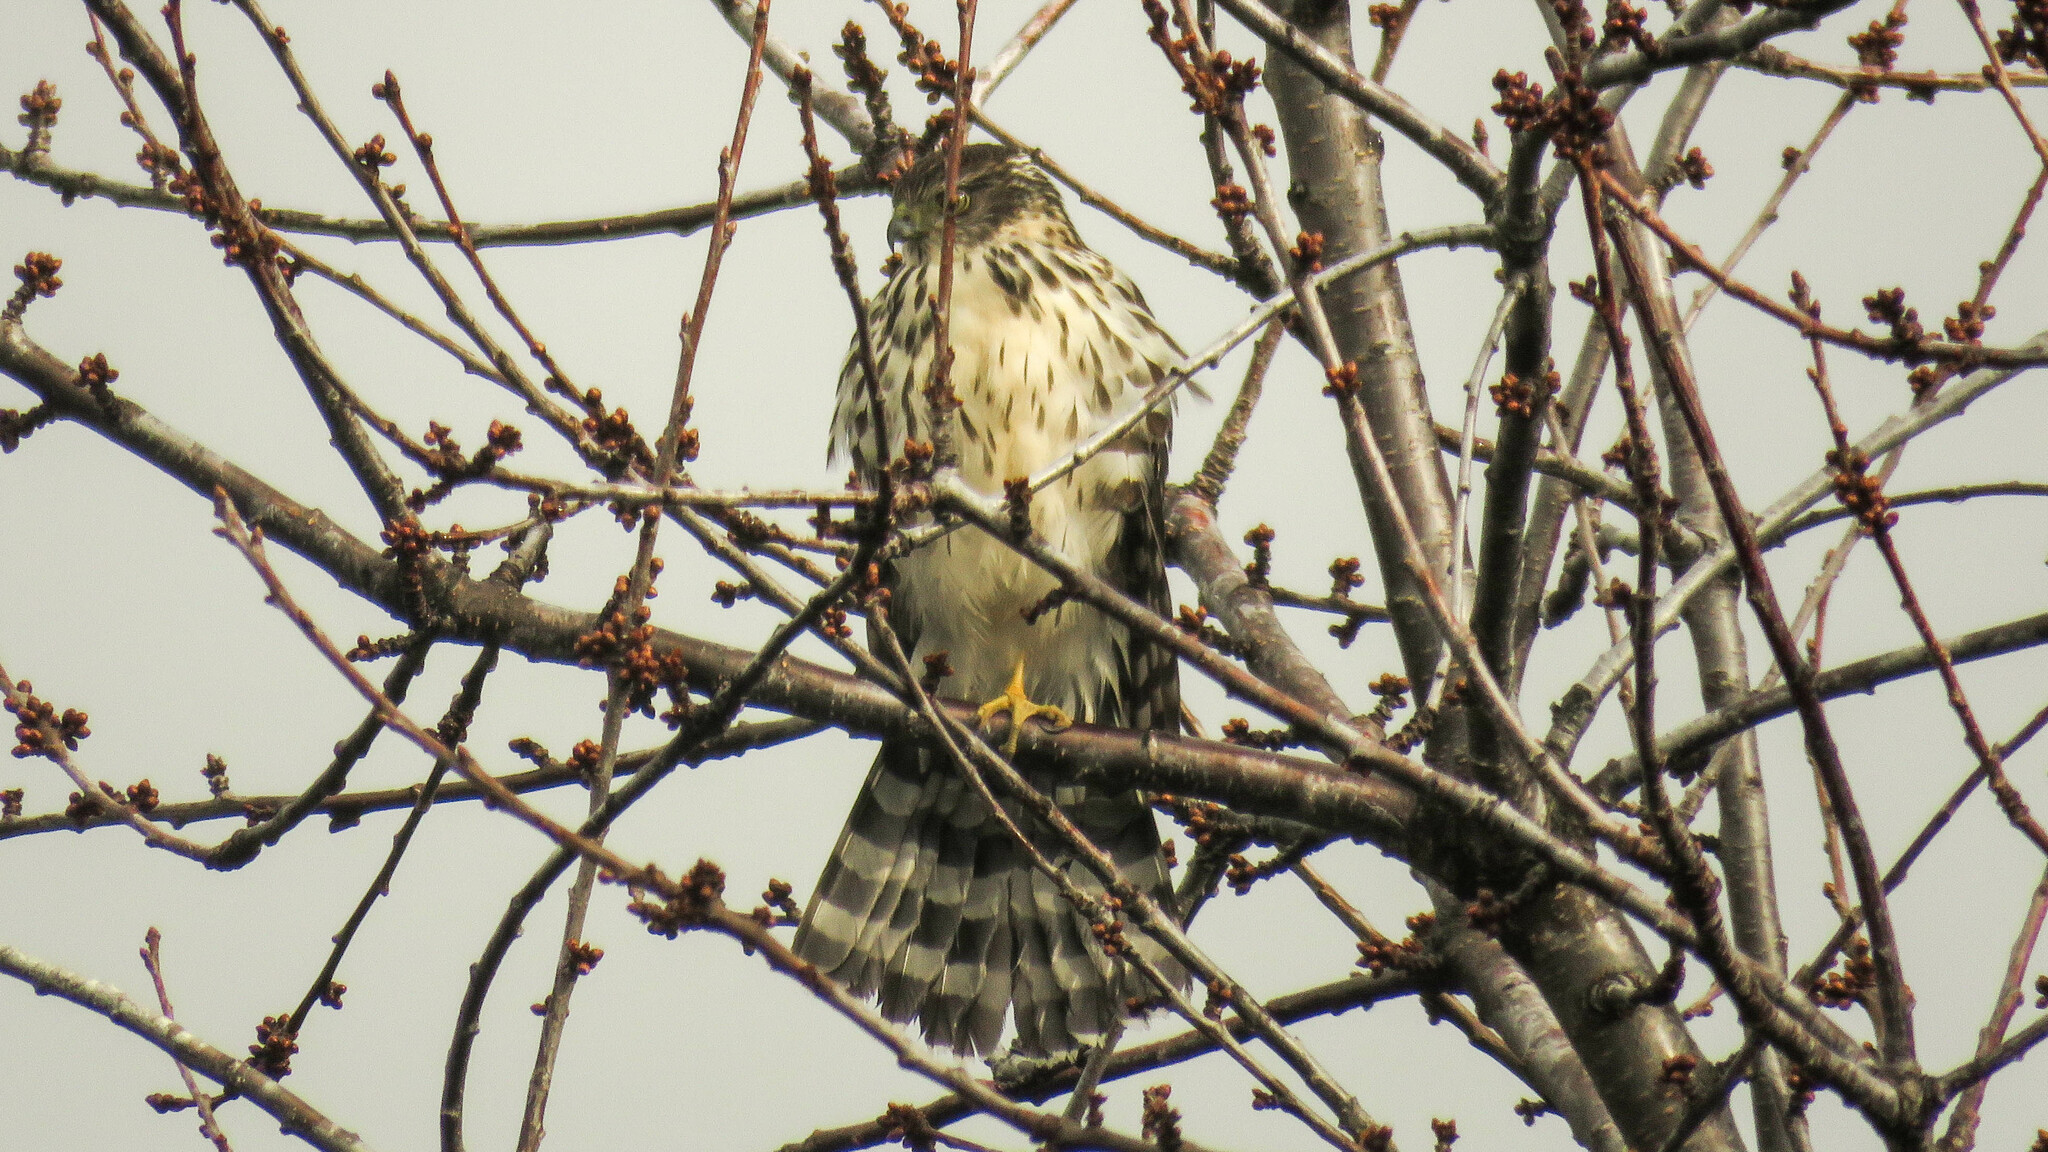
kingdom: Animalia
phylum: Chordata
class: Aves
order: Accipitriformes
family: Accipitridae
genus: Accipiter
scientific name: Accipiter chilensis
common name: Chilean hawk
